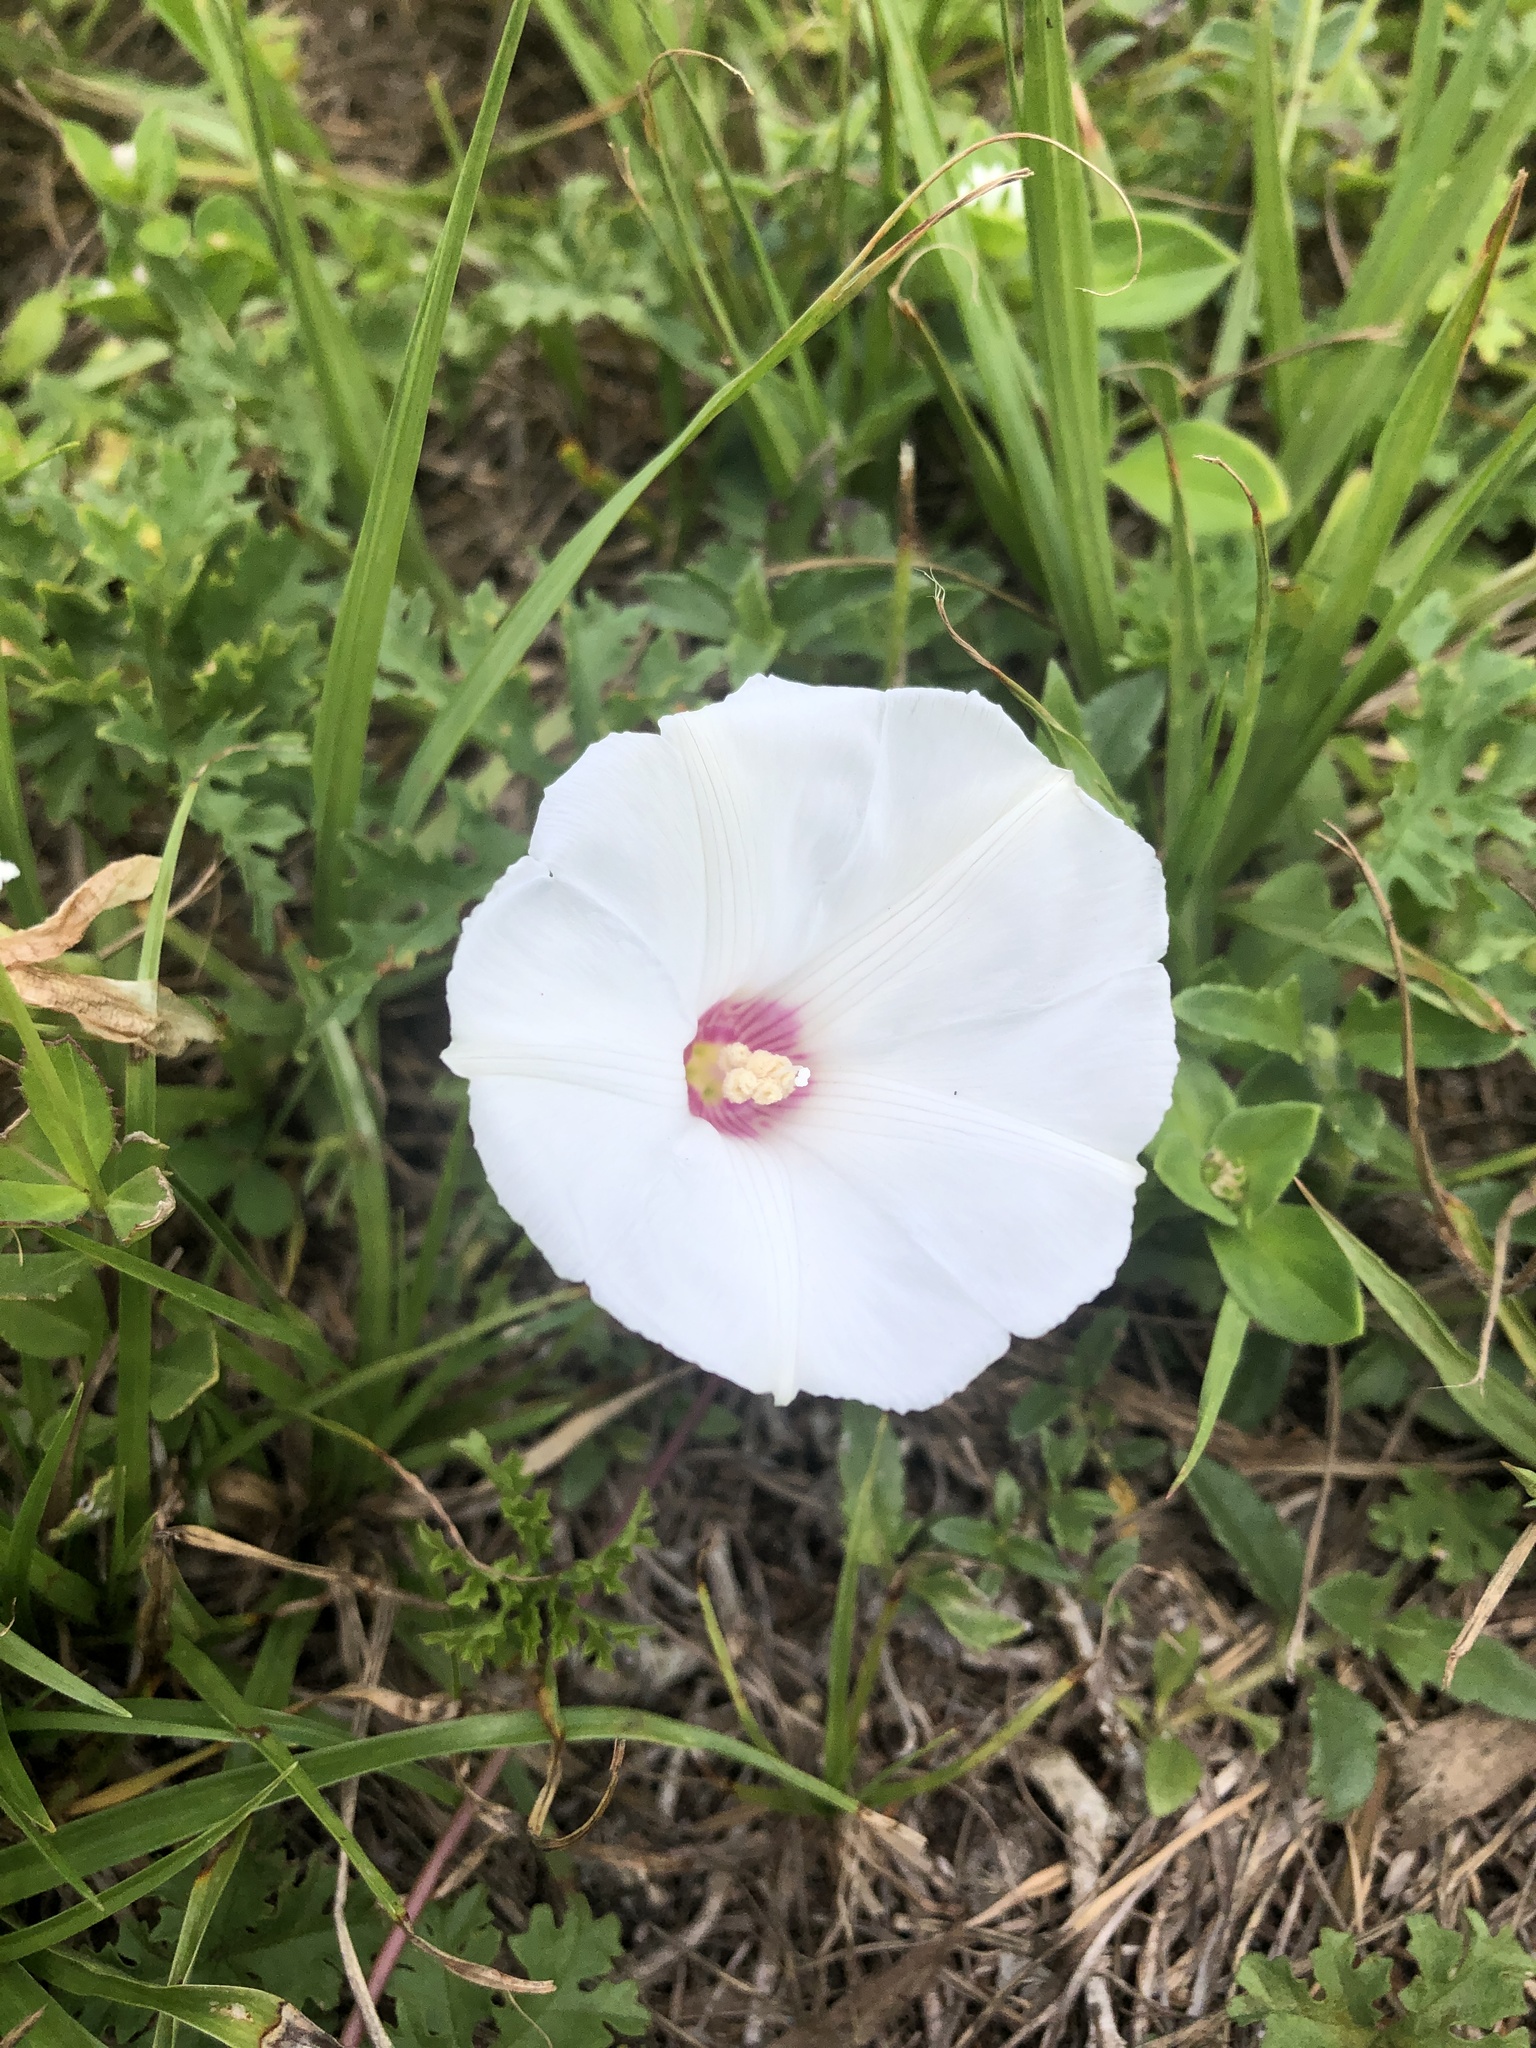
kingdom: Plantae
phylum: Tracheophyta
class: Magnoliopsida
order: Solanales
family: Convolvulaceae
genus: Distimake
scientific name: Distimake dissectus
